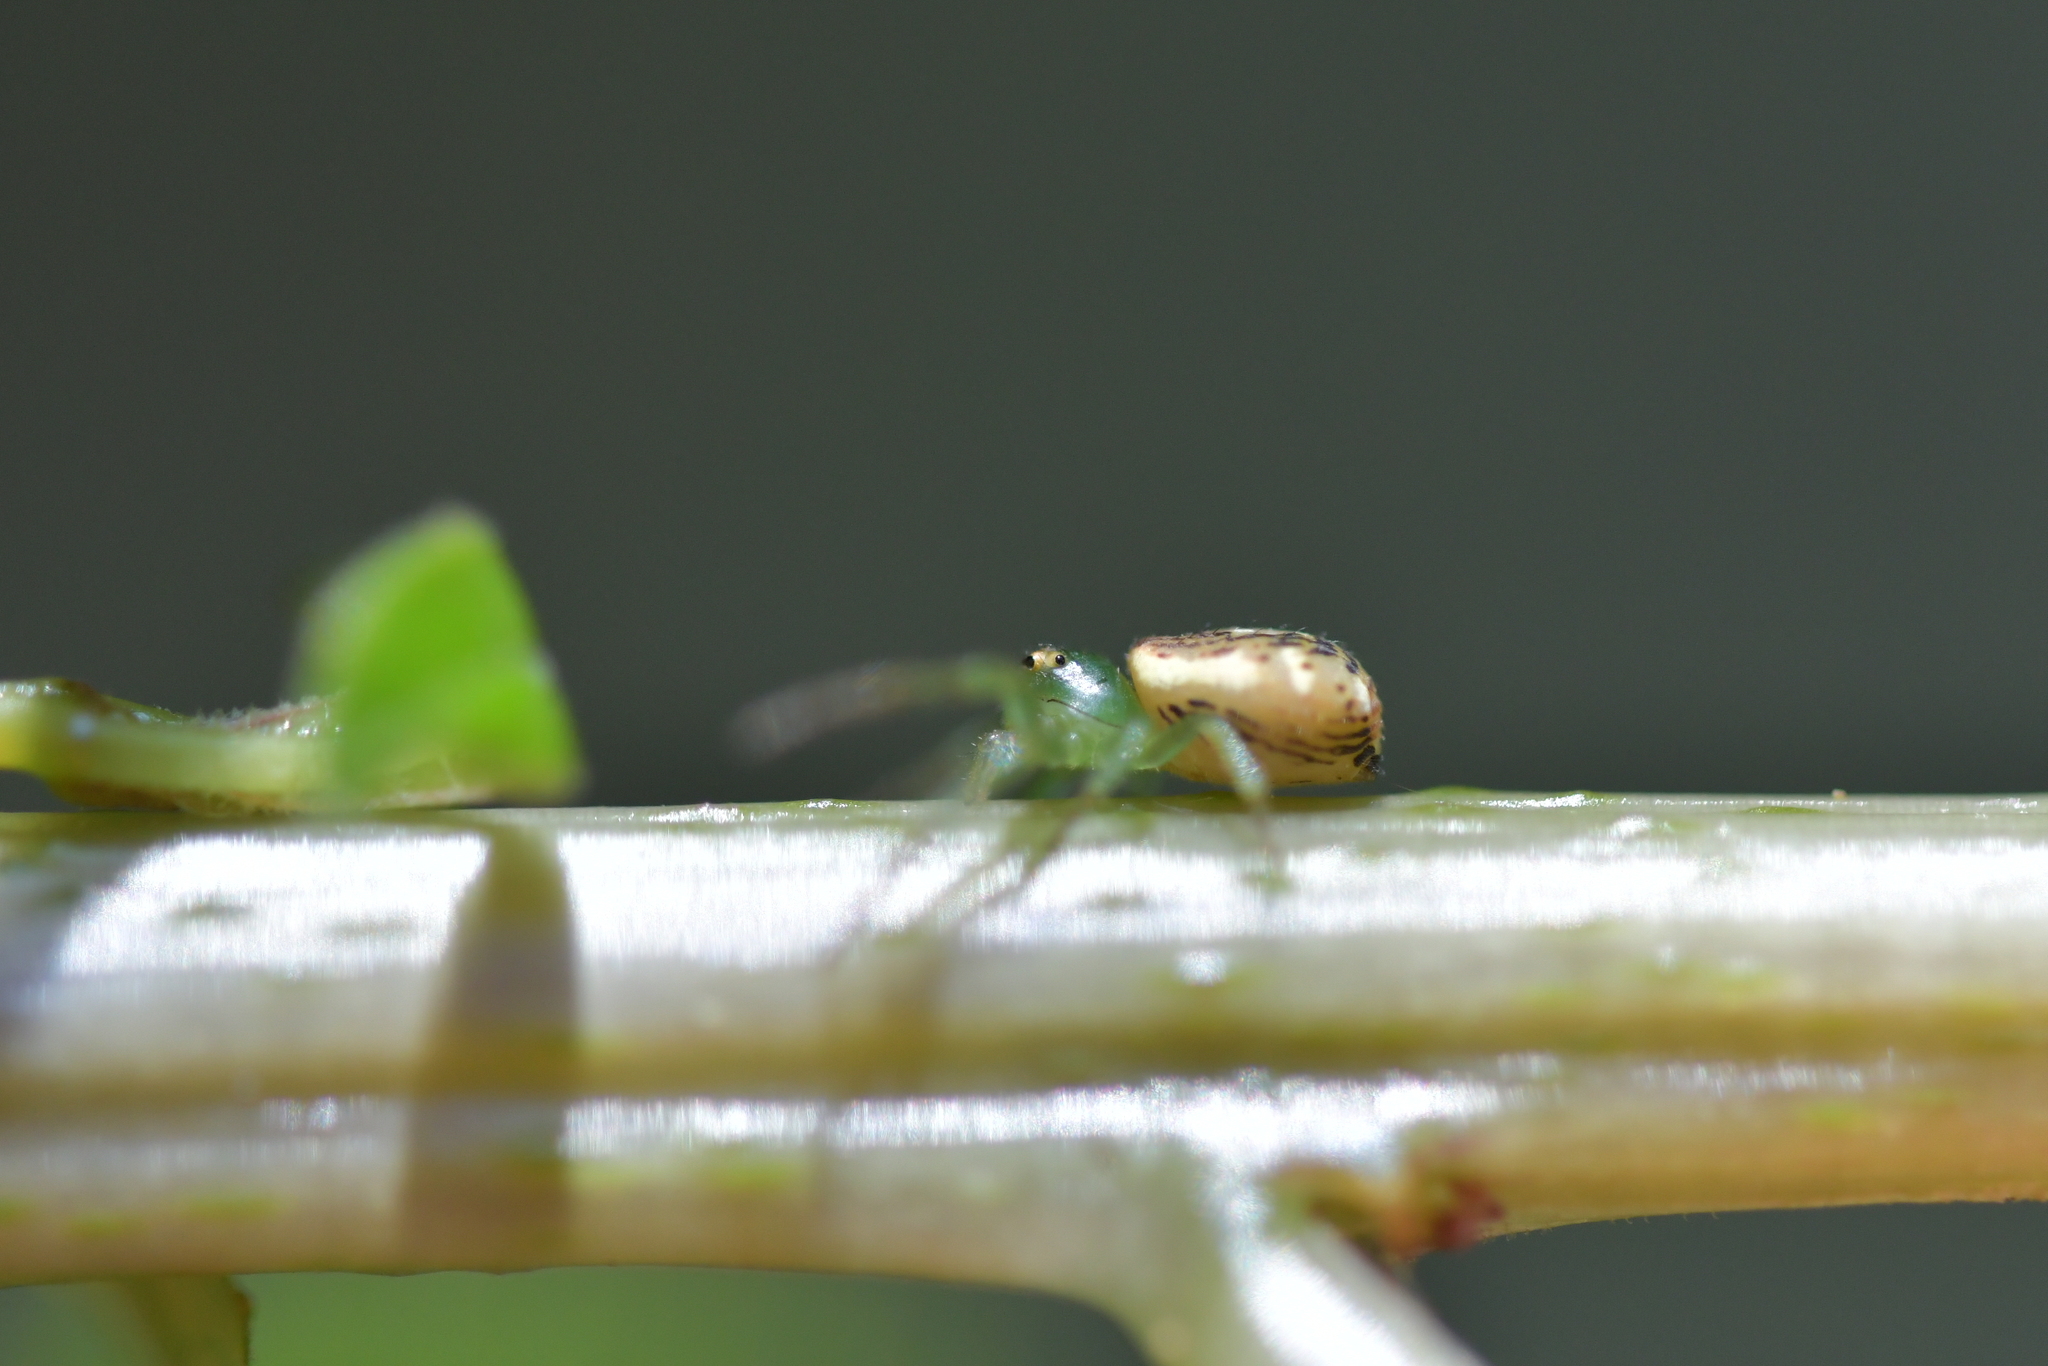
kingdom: Animalia
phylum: Arthropoda
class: Arachnida
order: Araneae
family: Thomisidae
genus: Diaea
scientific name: Diaea ambara
